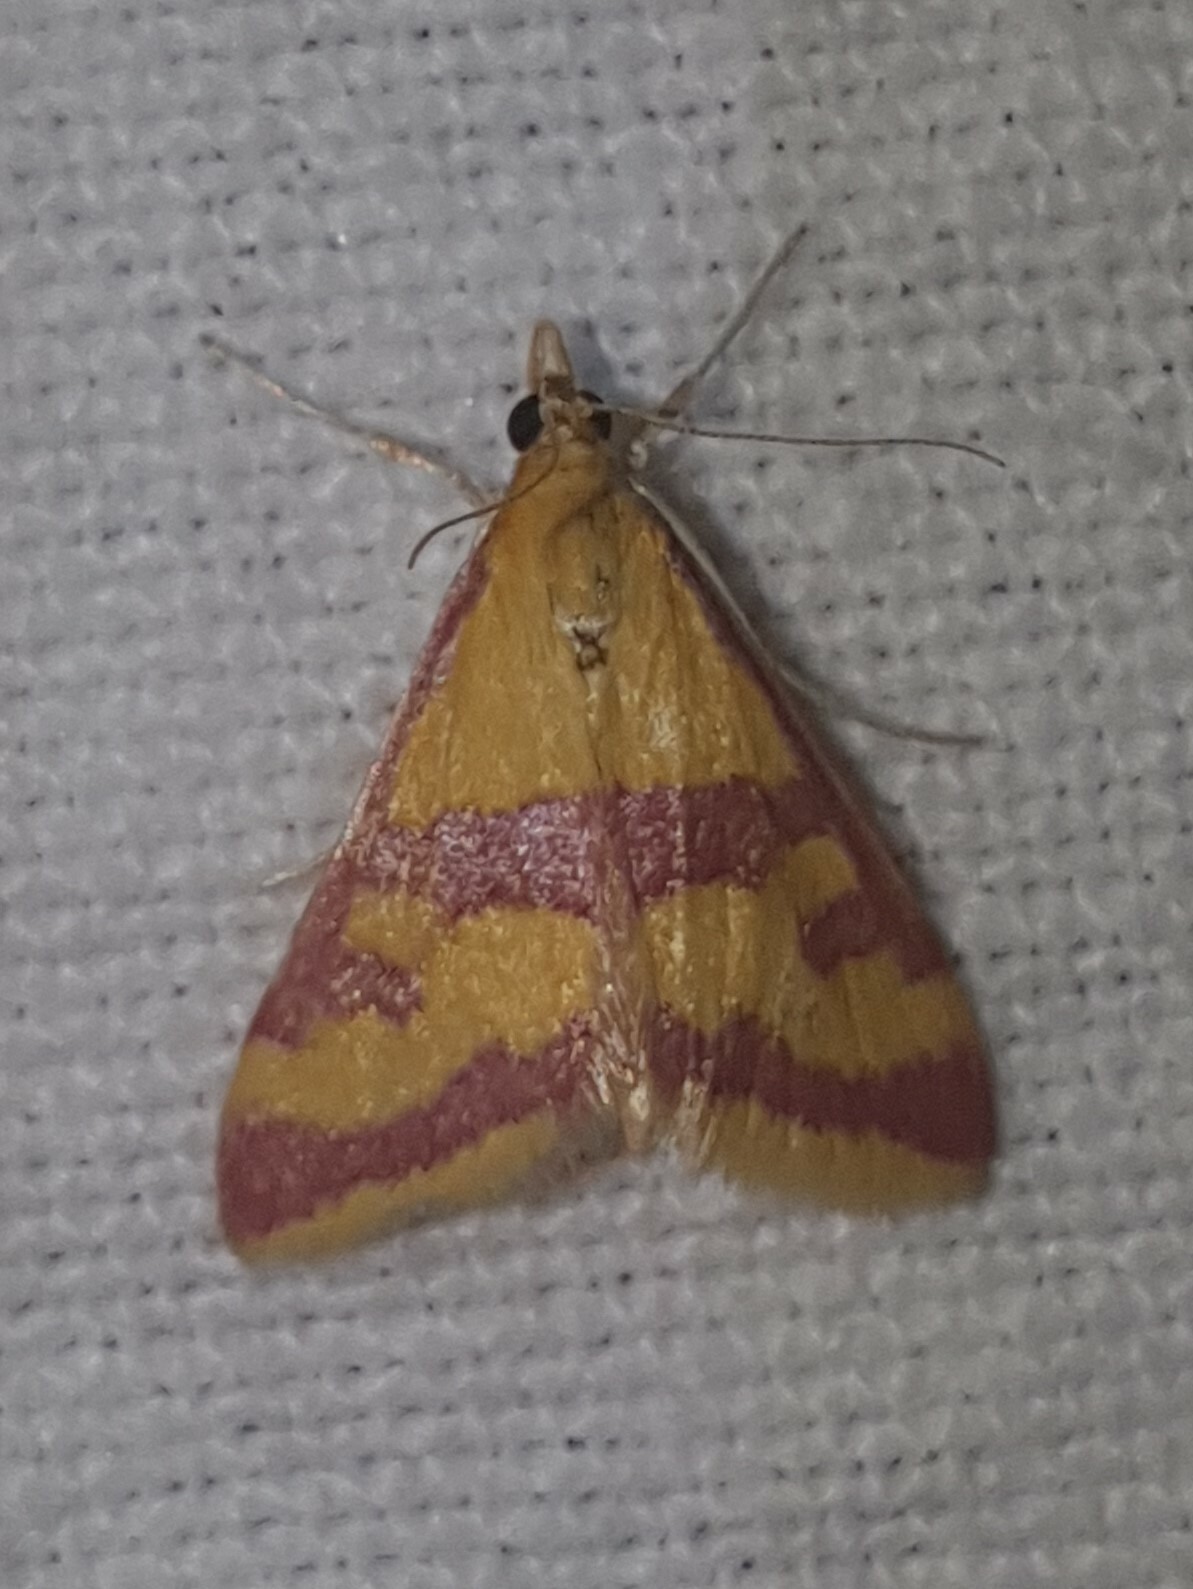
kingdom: Animalia
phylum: Arthropoda
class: Insecta
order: Lepidoptera
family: Crambidae
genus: Pyrausta
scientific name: Pyrausta sanguinalis
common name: Scarce crimson and gold
